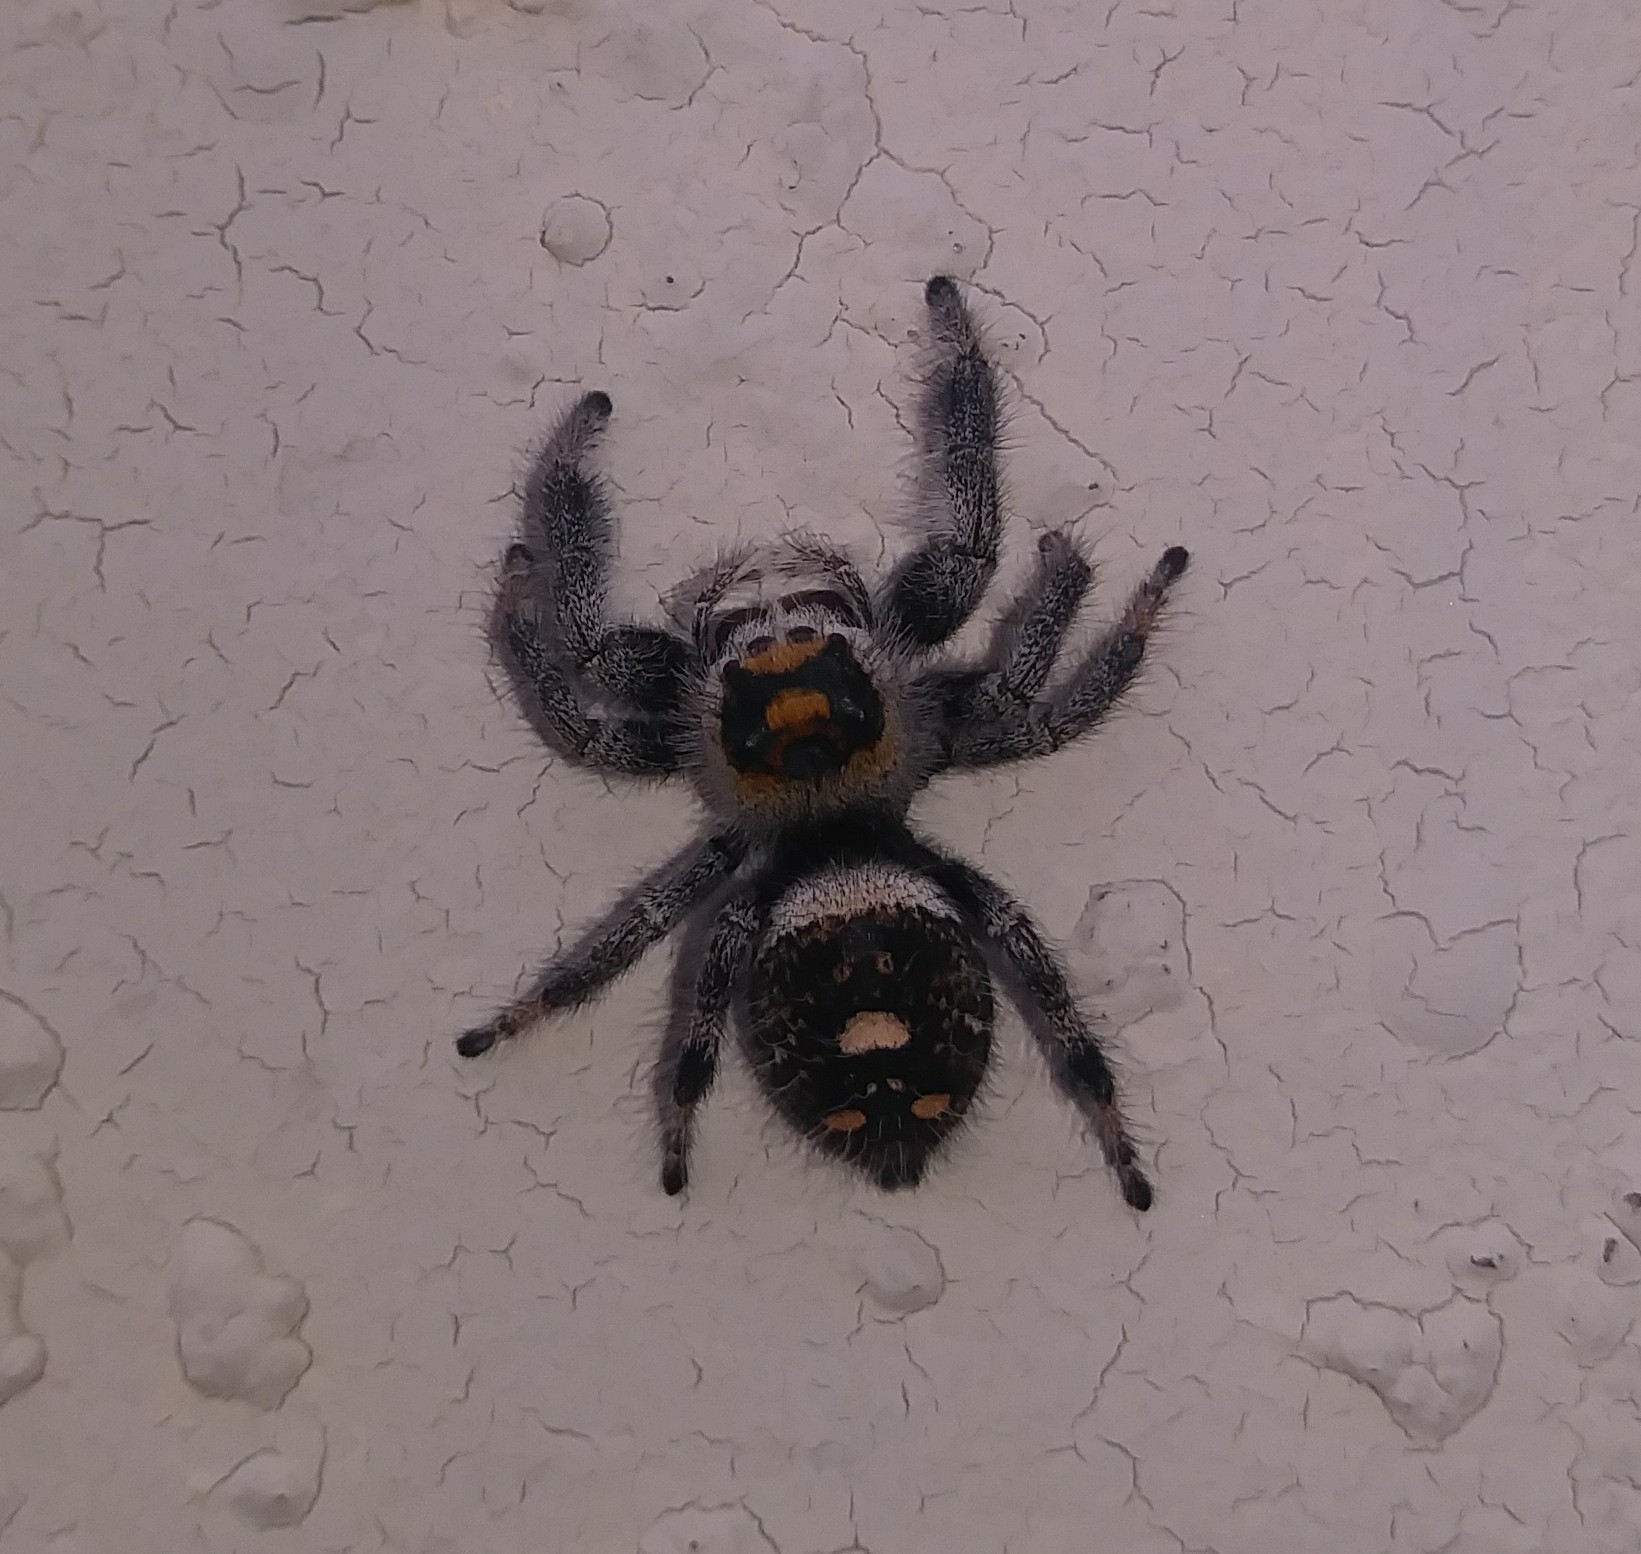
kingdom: Animalia
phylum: Arthropoda
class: Arachnida
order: Araneae
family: Salticidae
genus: Phidippus
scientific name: Phidippus regius
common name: Regal jumper
